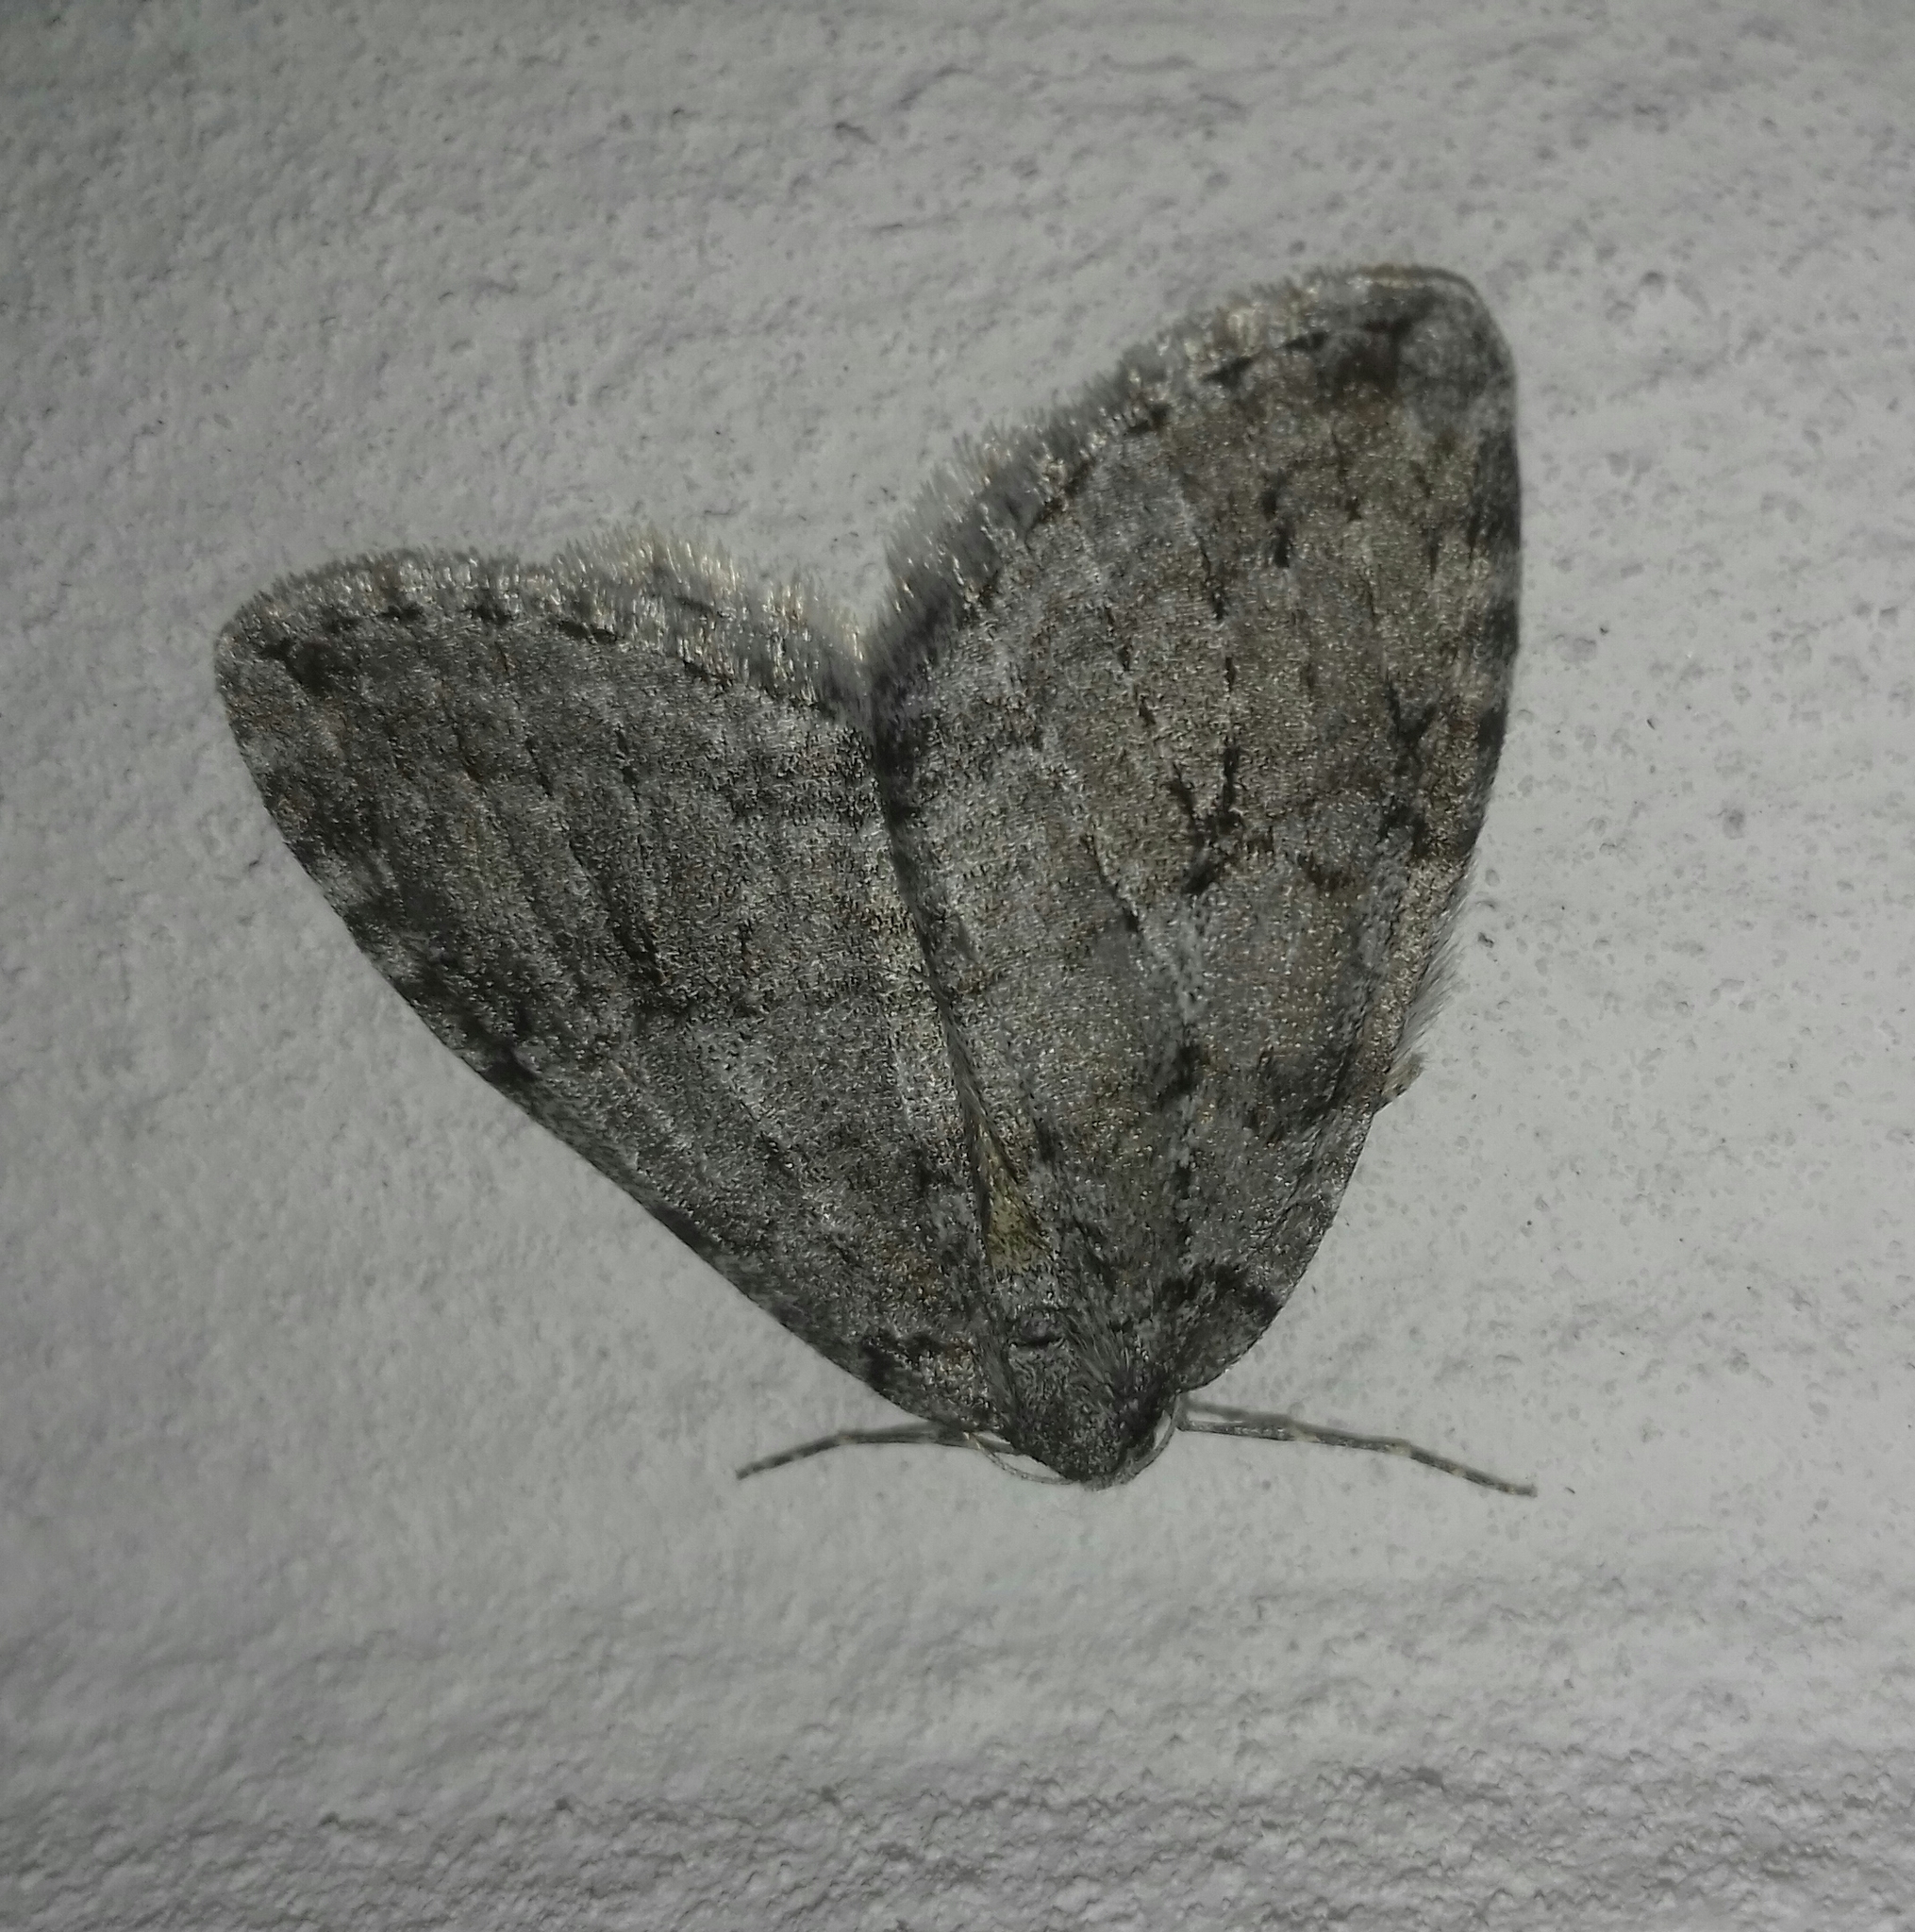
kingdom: Animalia
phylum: Arthropoda
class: Insecta
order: Lepidoptera
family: Geometridae
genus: Epirrita
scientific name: Epirrita autumnata
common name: Autumnal moth
